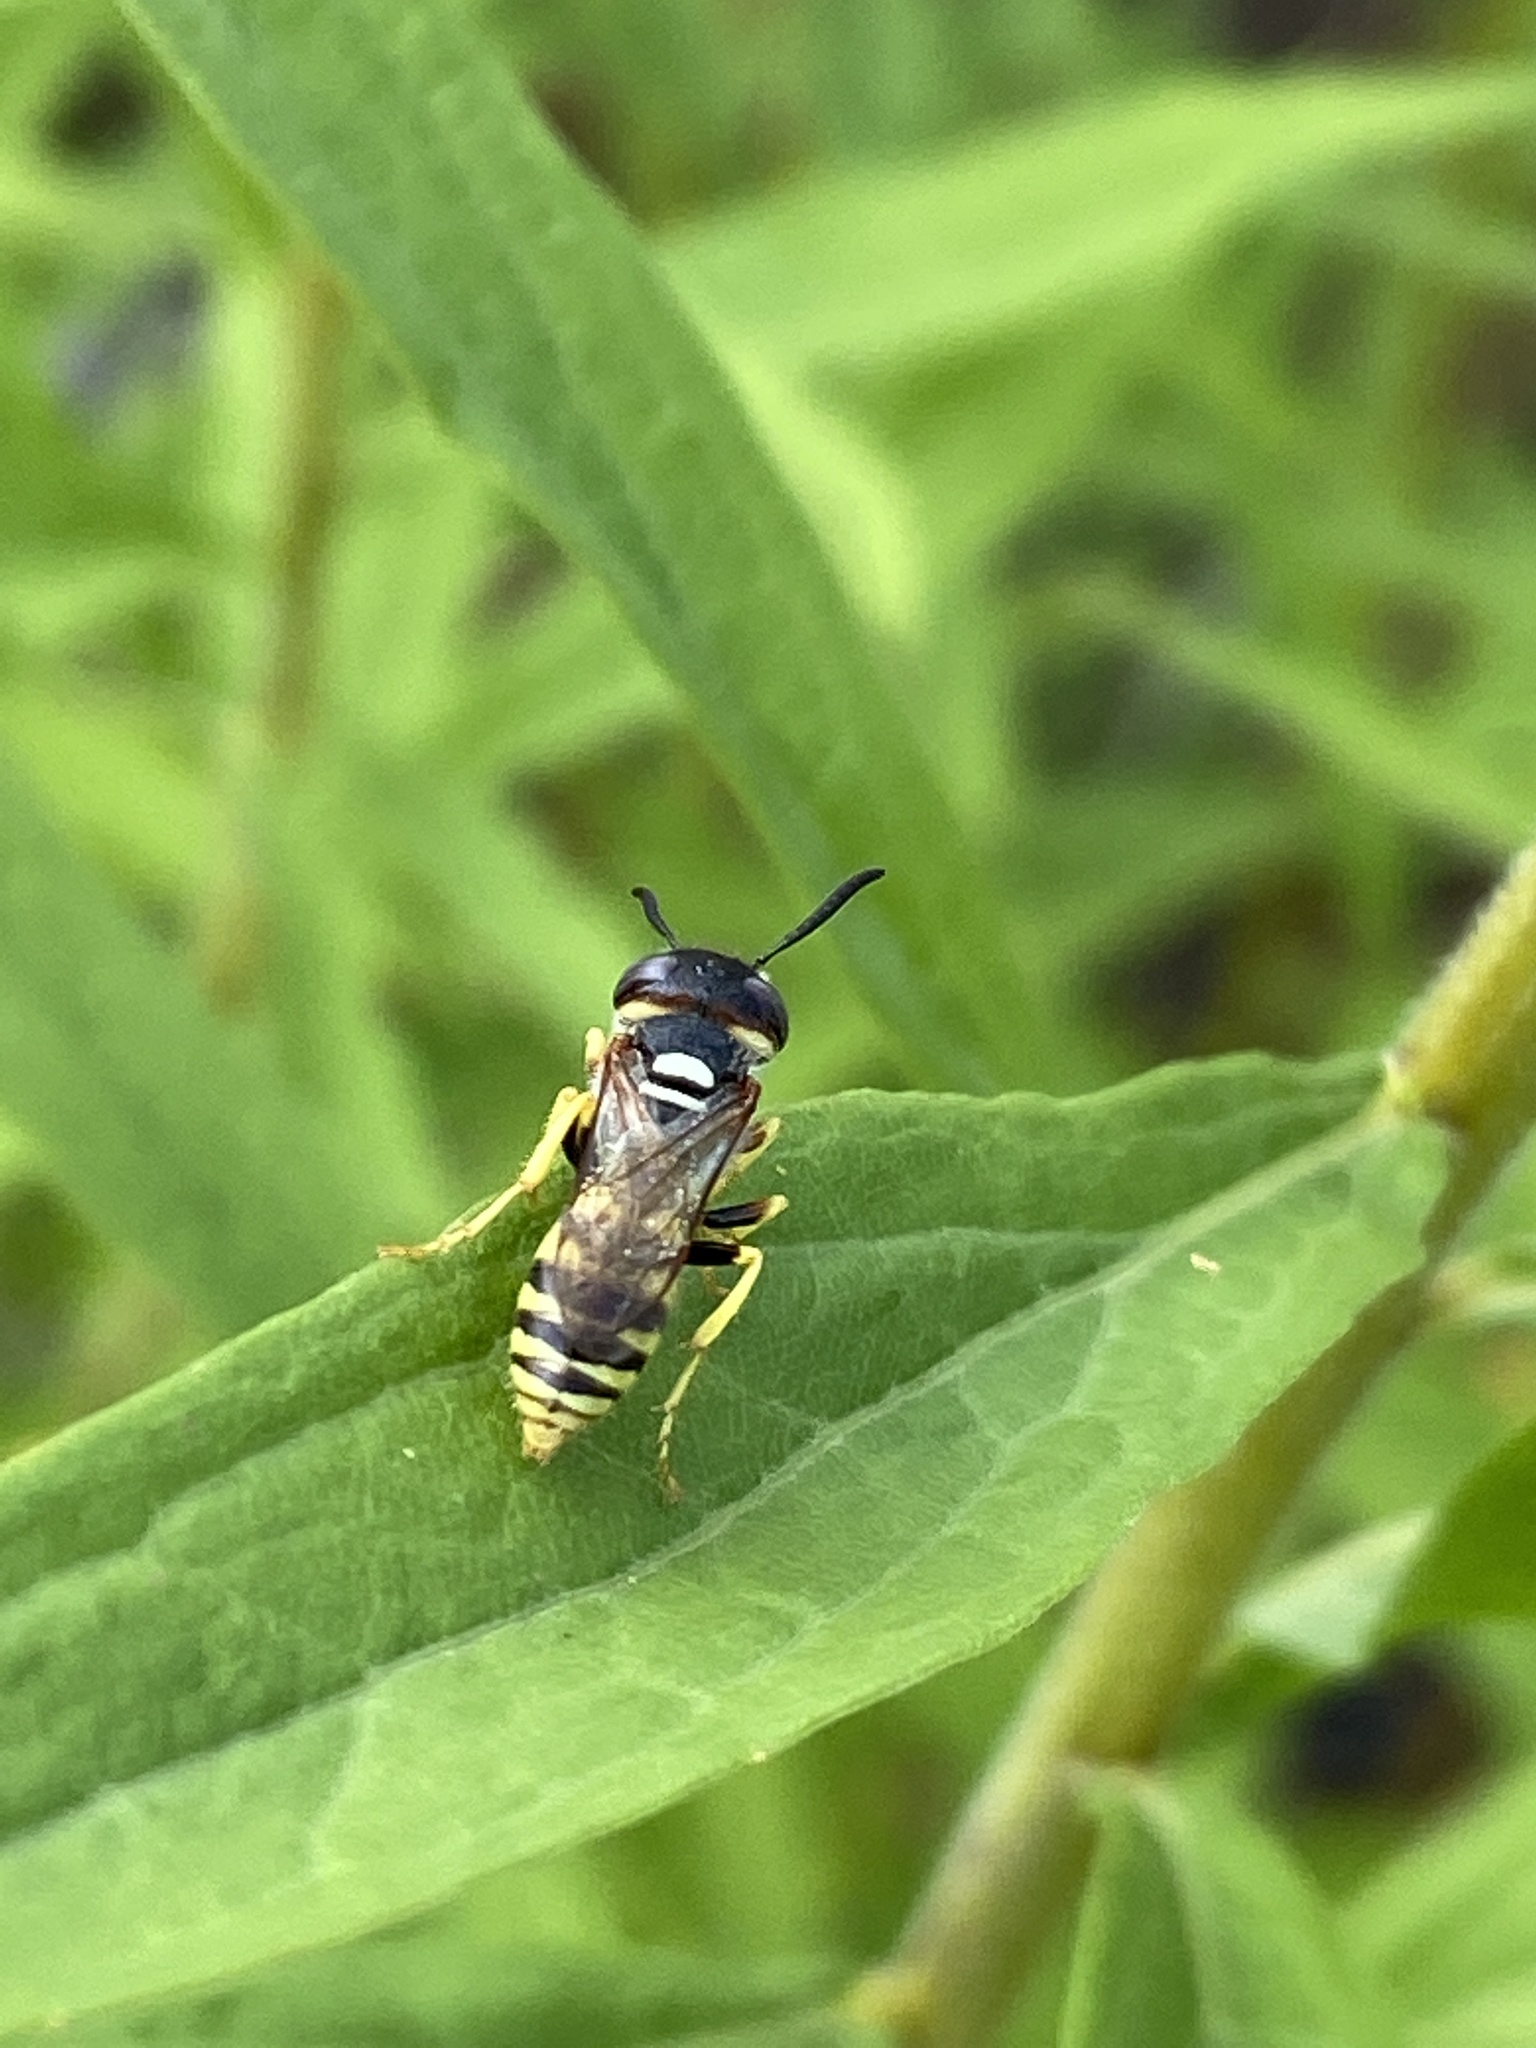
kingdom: Animalia
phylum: Arthropoda
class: Insecta
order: Hymenoptera
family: Crabronidae
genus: Philanthus
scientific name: Philanthus triangulum
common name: Bee wolf
